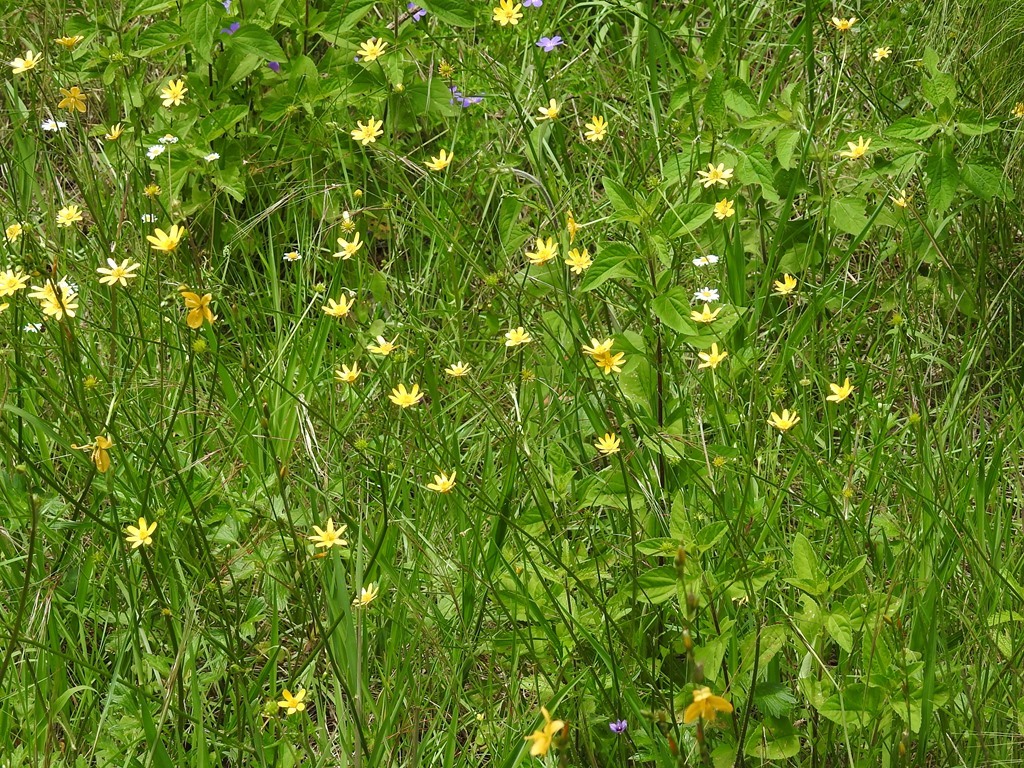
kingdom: Plantae
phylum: Tracheophyta
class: Magnoliopsida
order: Ranunculales
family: Ranunculaceae
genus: Ranunculus
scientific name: Ranunculus petiolaris
